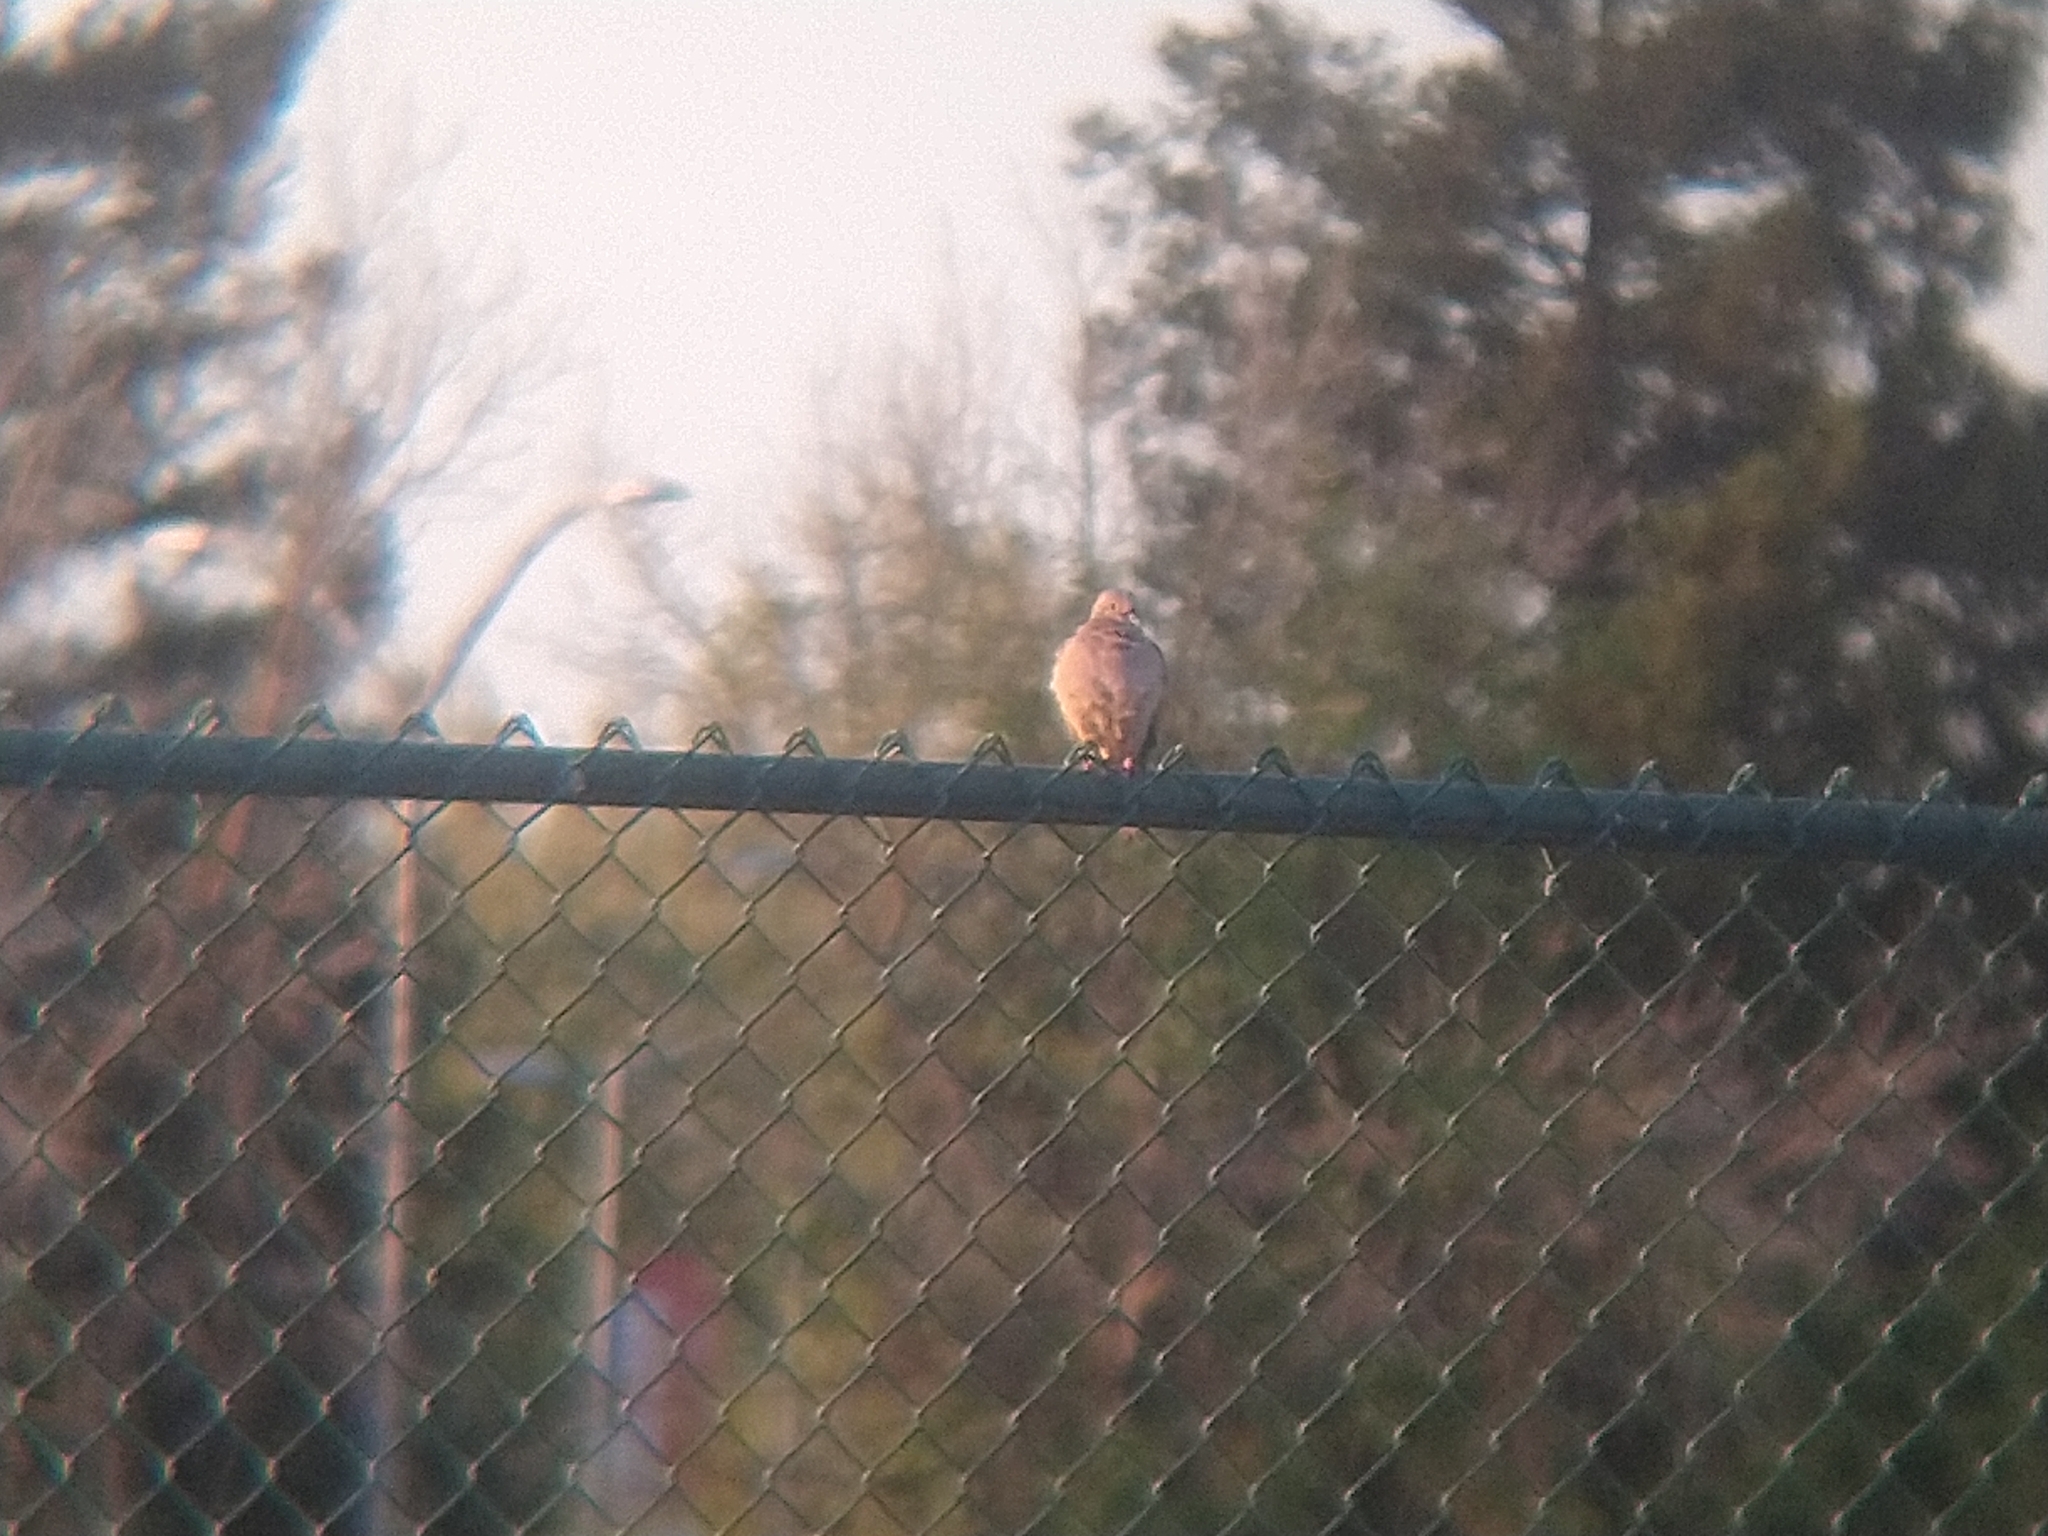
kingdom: Animalia
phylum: Chordata
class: Aves
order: Columbiformes
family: Columbidae
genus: Zenaida
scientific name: Zenaida macroura
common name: Mourning dove
